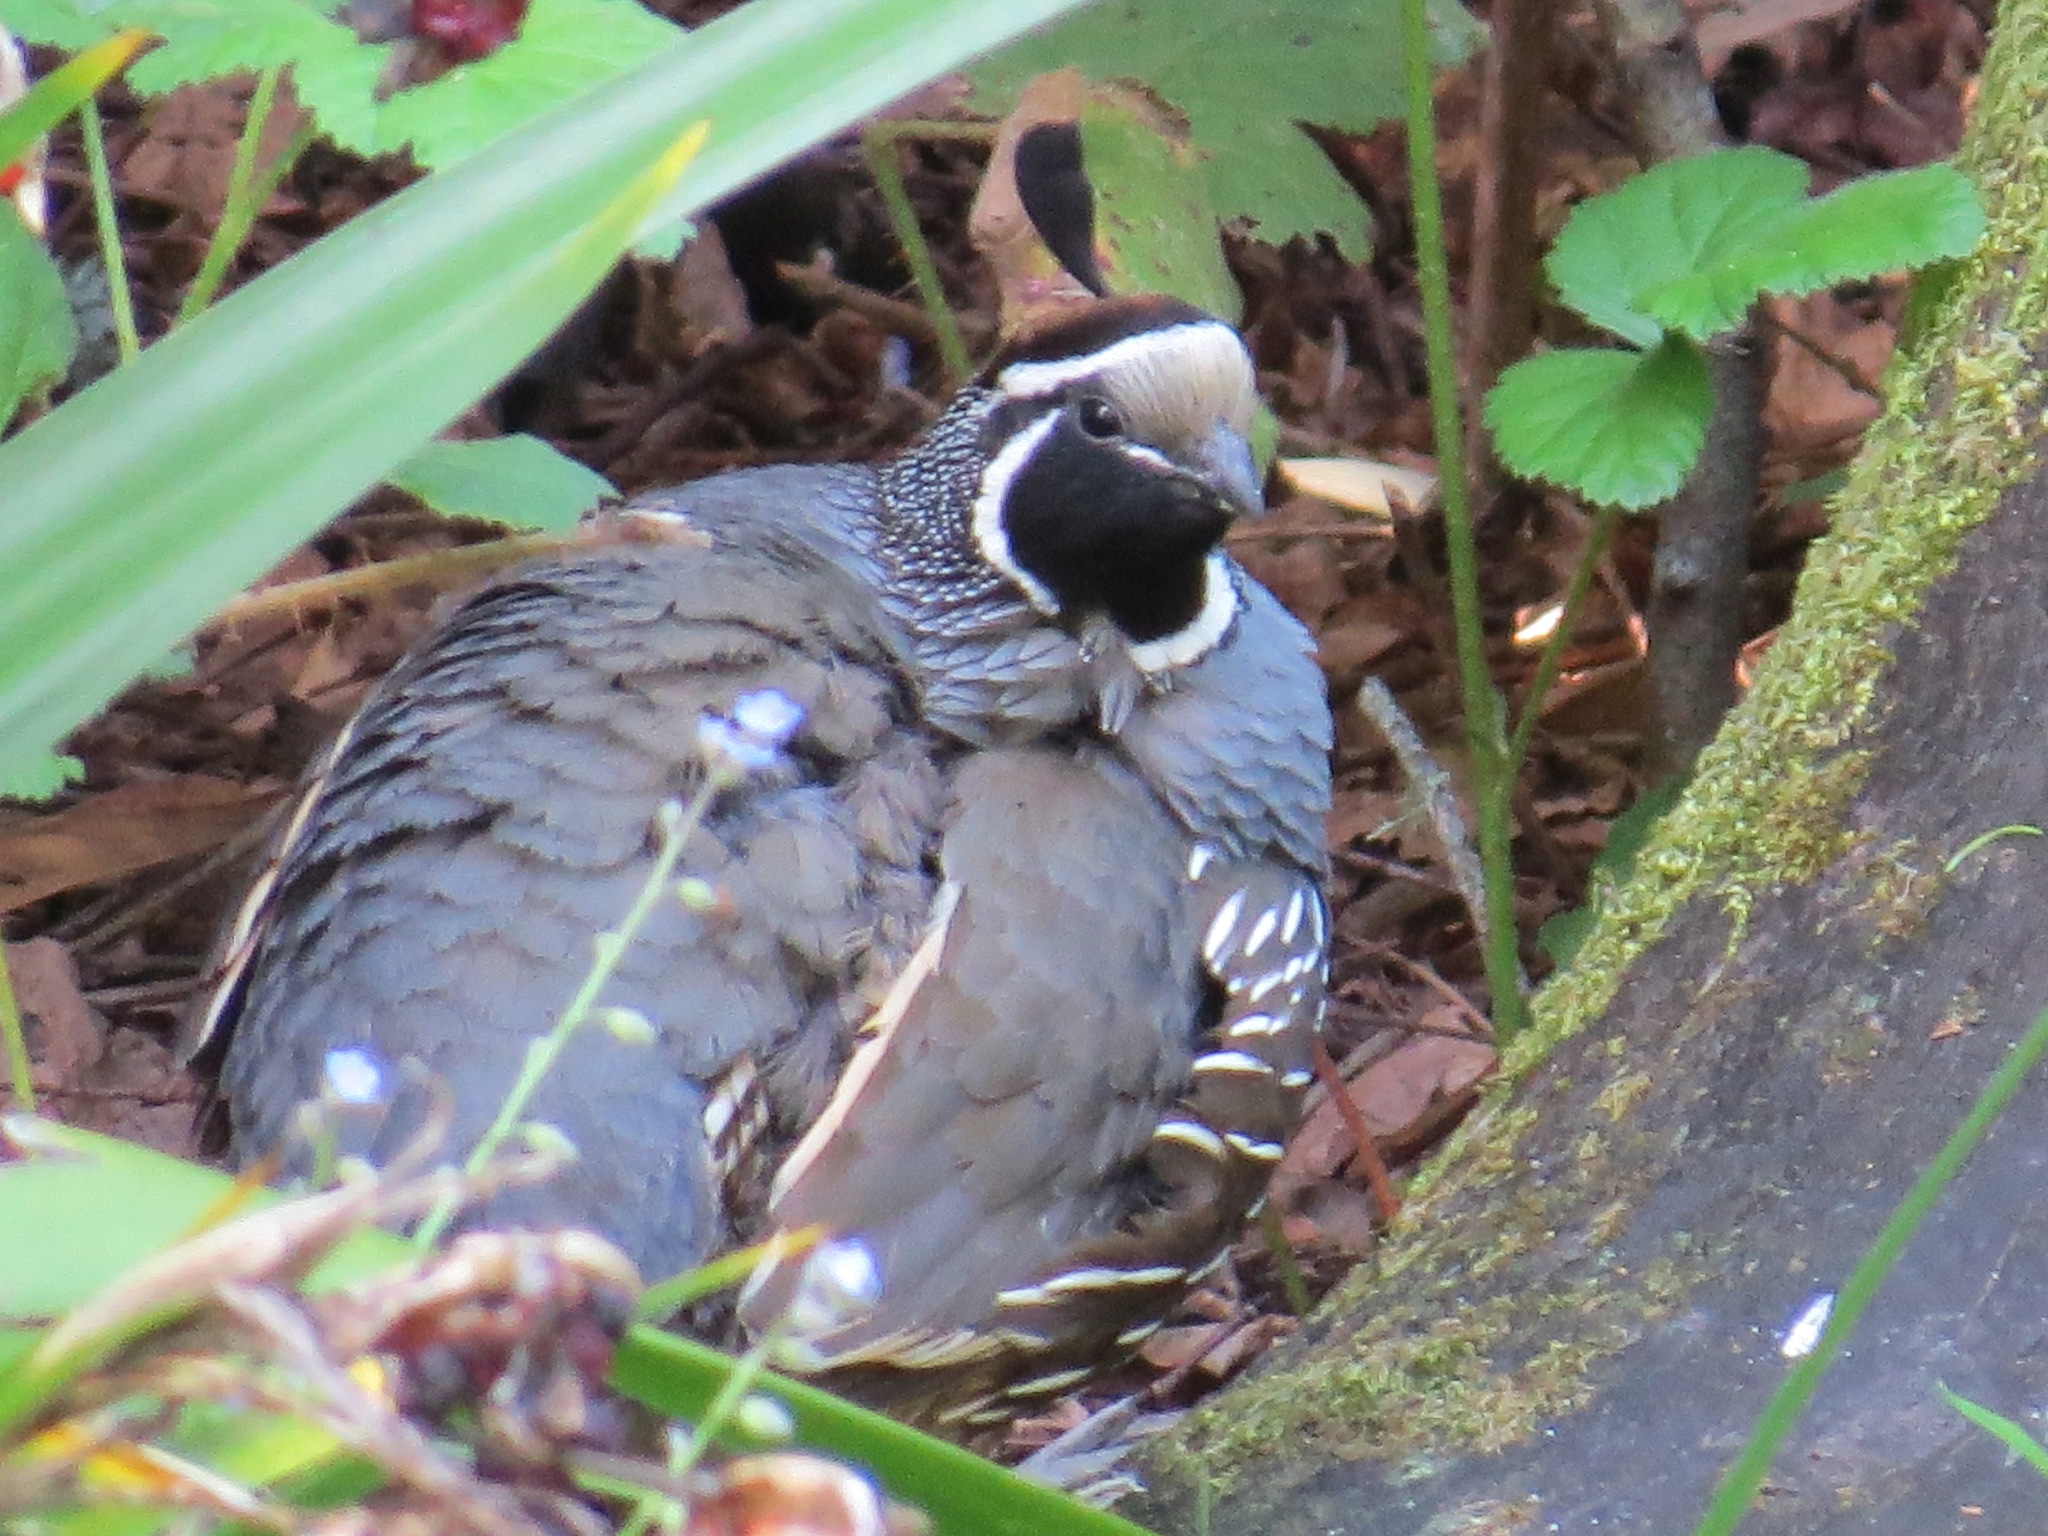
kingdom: Animalia
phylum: Chordata
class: Aves
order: Galliformes
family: Odontophoridae
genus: Callipepla
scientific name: Callipepla californica
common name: California quail
